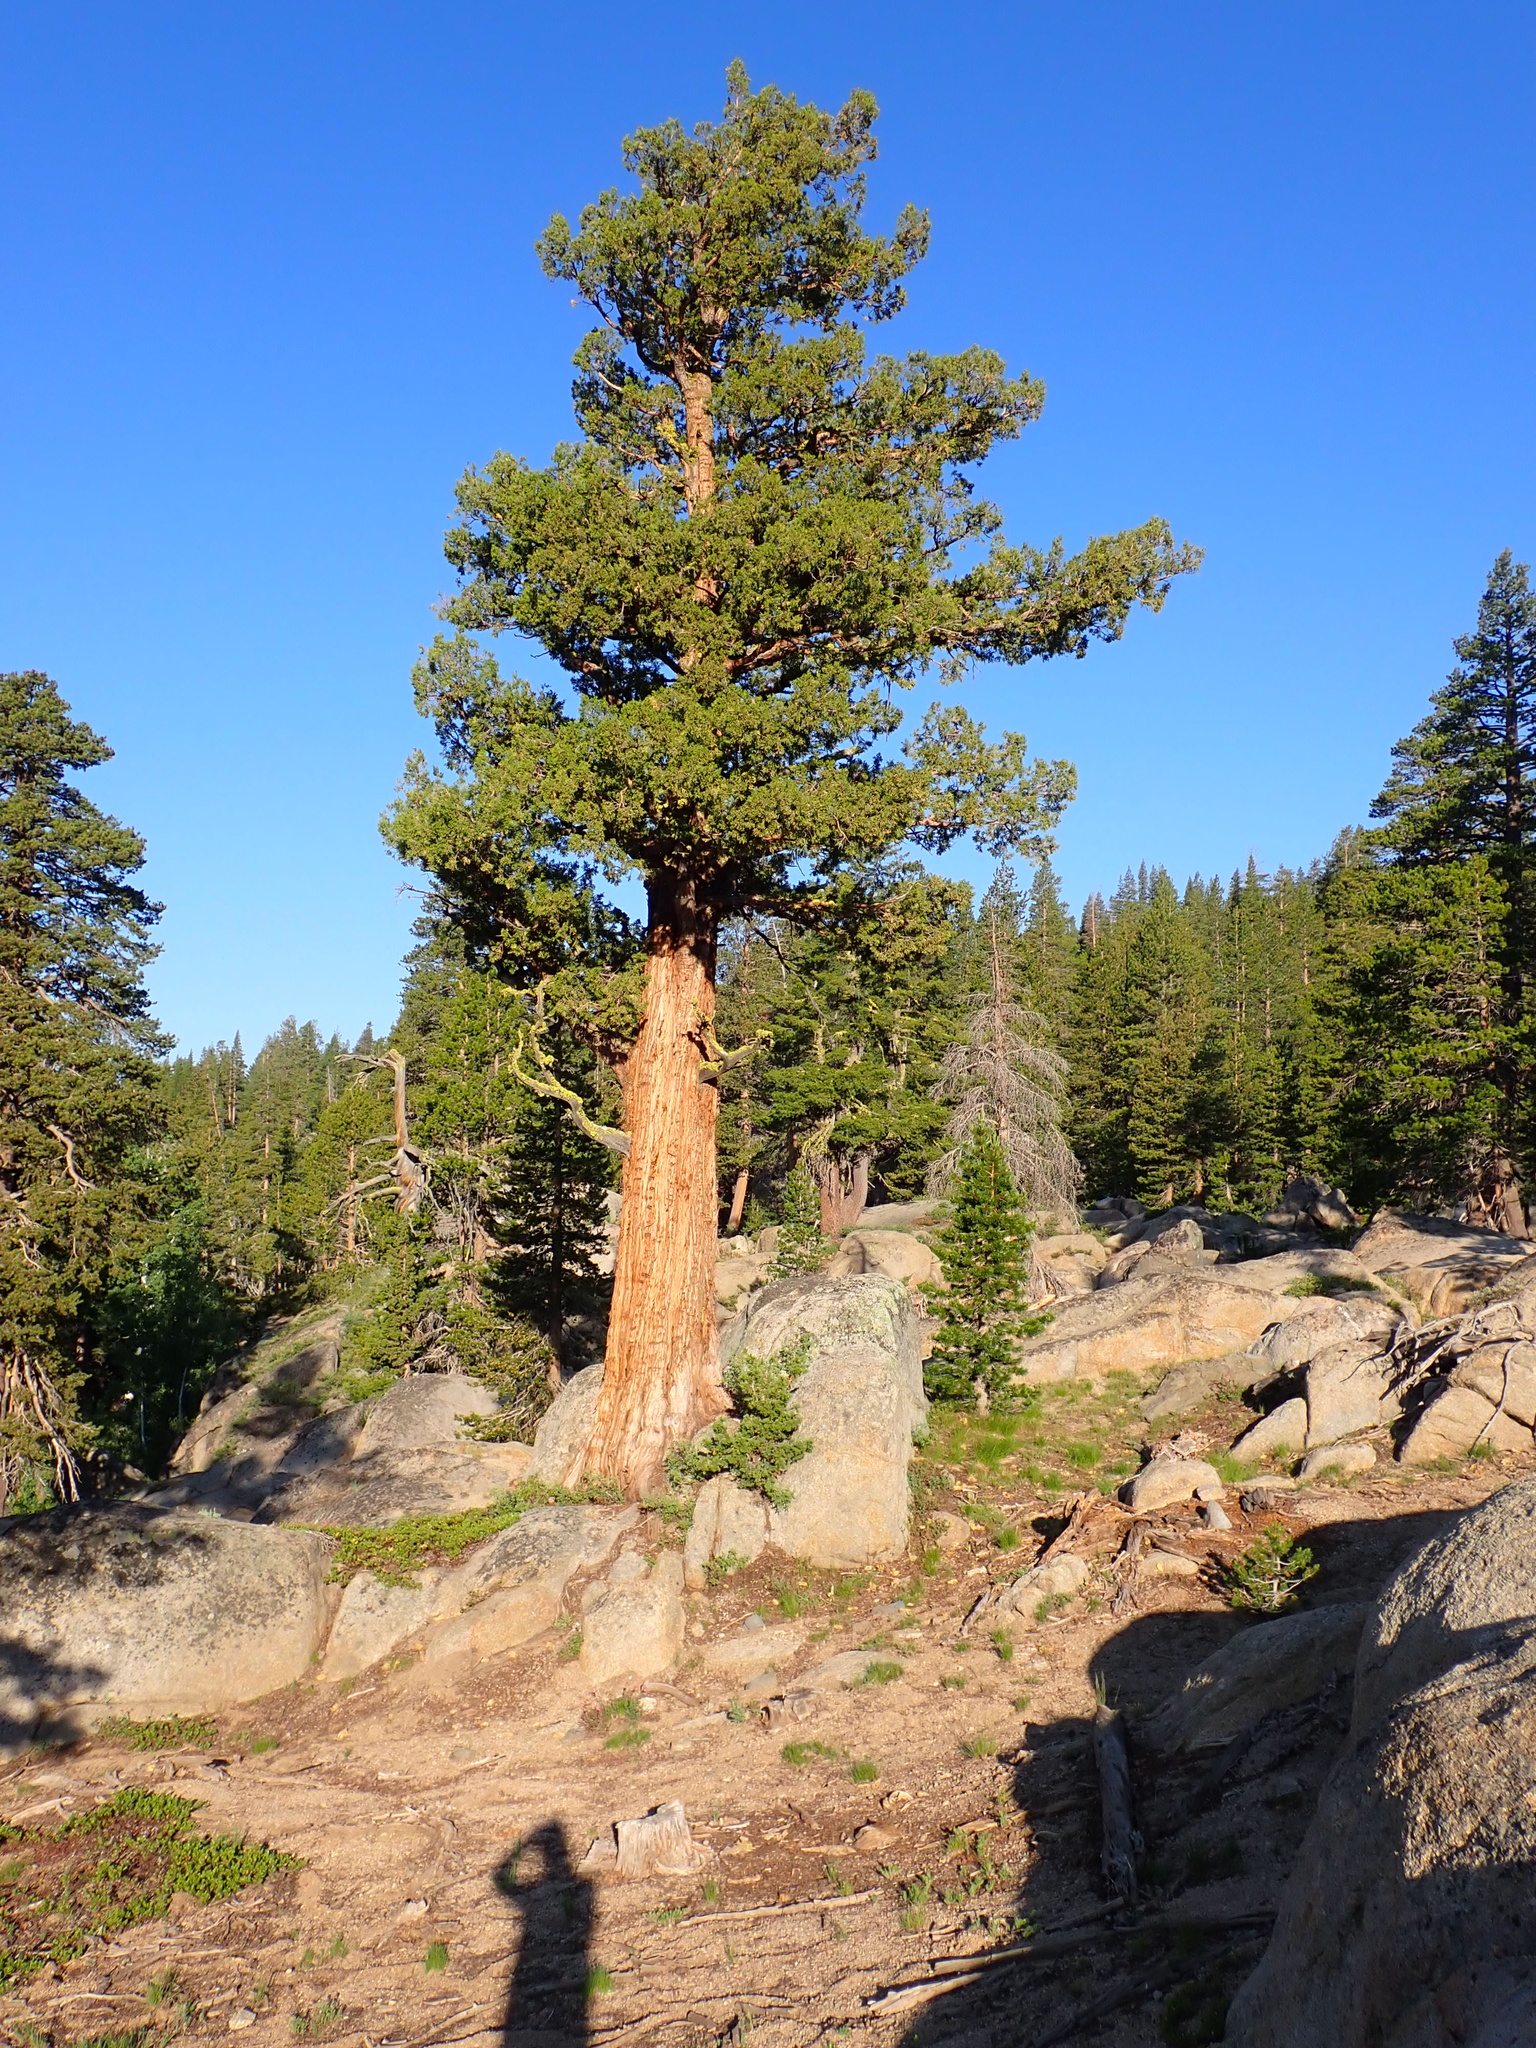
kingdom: Plantae
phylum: Tracheophyta
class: Pinopsida
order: Pinales
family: Cupressaceae
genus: Juniperus
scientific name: Juniperus occidentalis
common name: Western juniper
